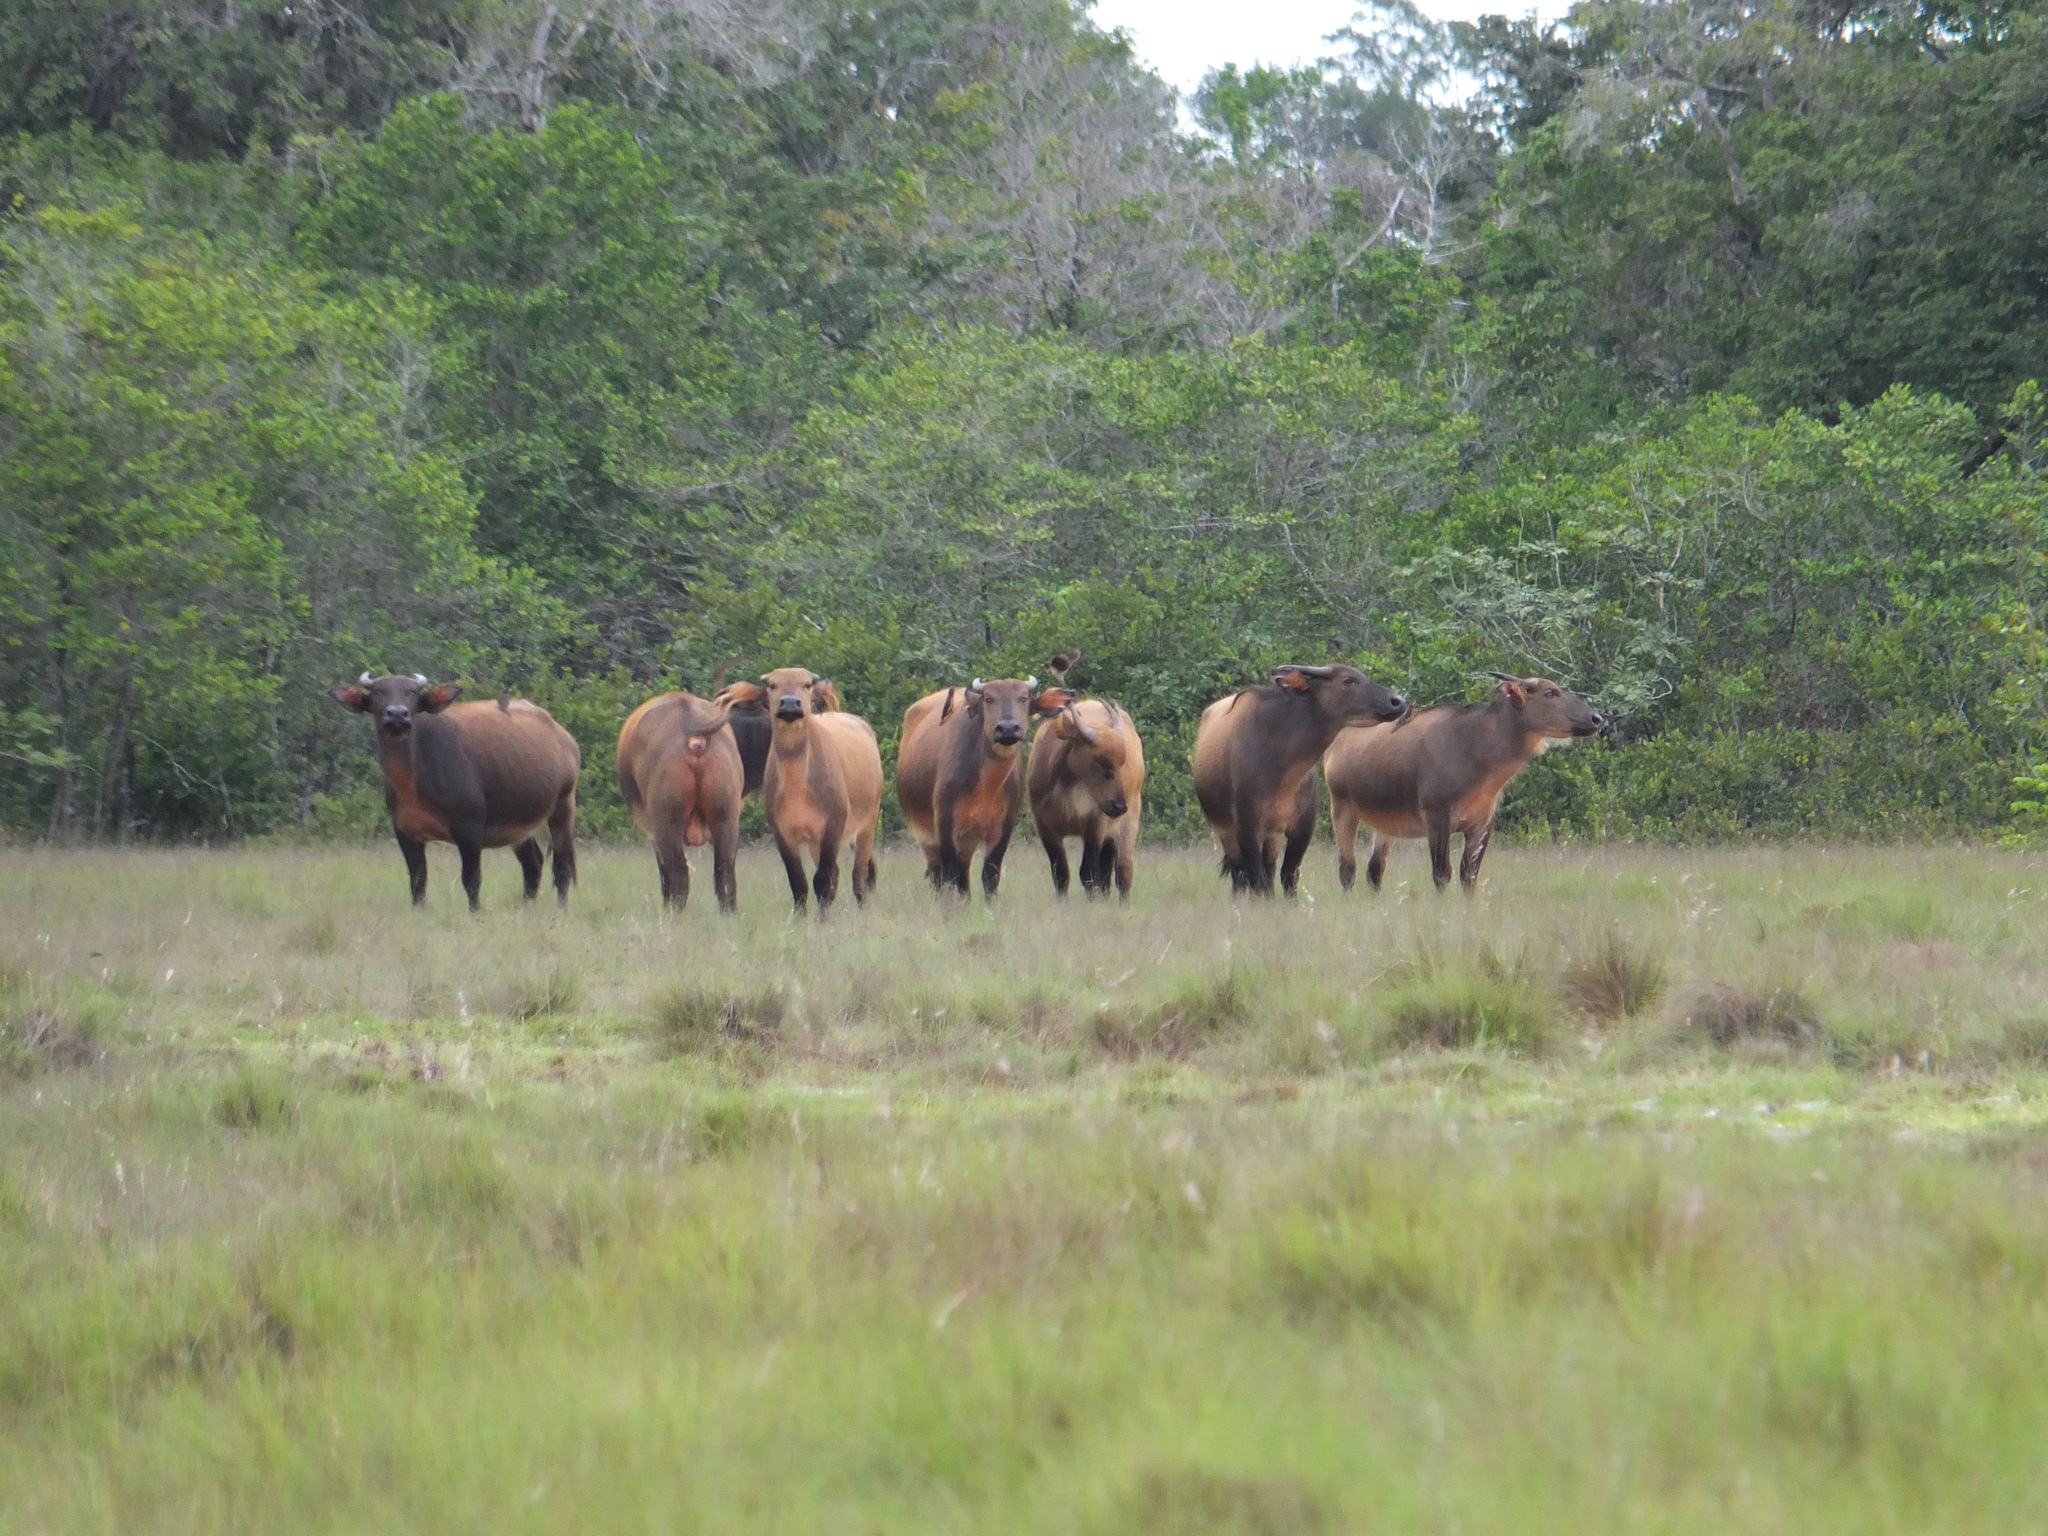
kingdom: Animalia
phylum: Chordata
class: Mammalia
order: Artiodactyla
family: Bovidae
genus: Syncerus
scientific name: Syncerus caffer
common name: African buffalo
